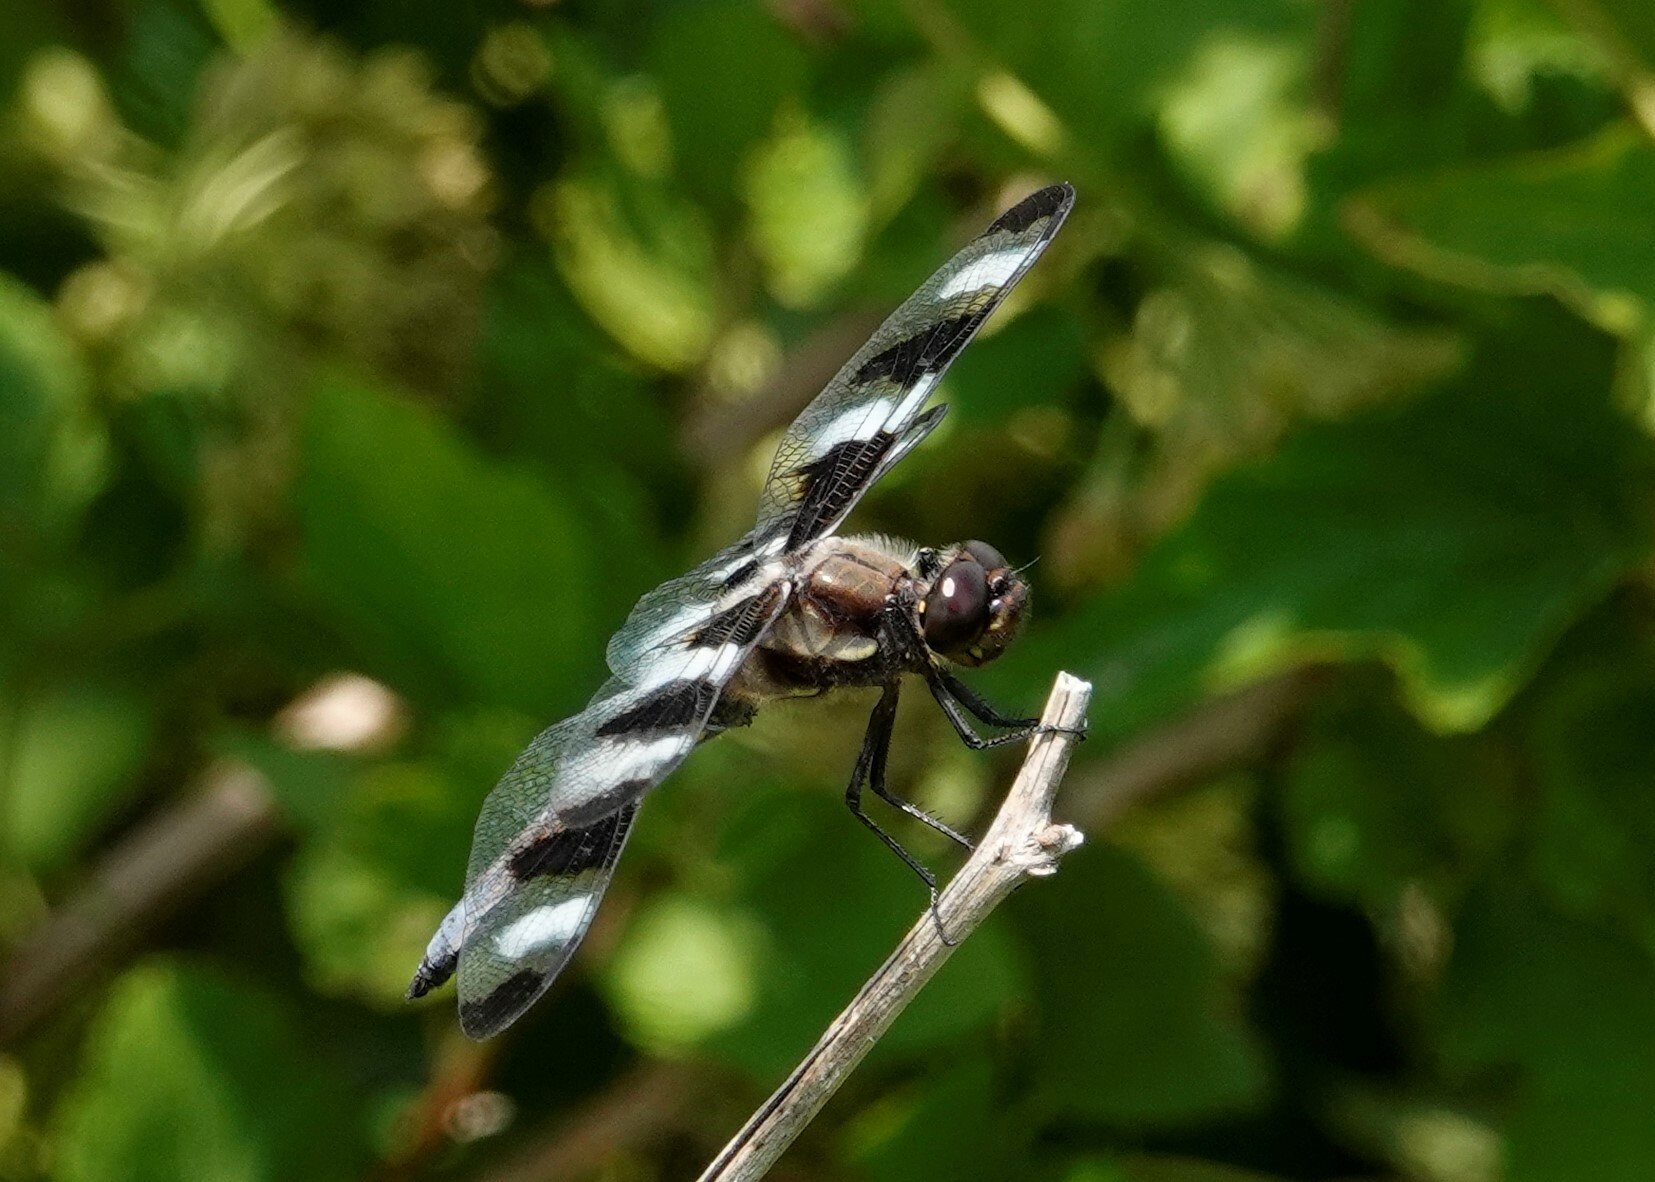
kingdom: Animalia
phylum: Arthropoda
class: Insecta
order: Odonata
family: Libellulidae
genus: Libellula
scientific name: Libellula pulchella
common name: Twelve-spotted skimmer
